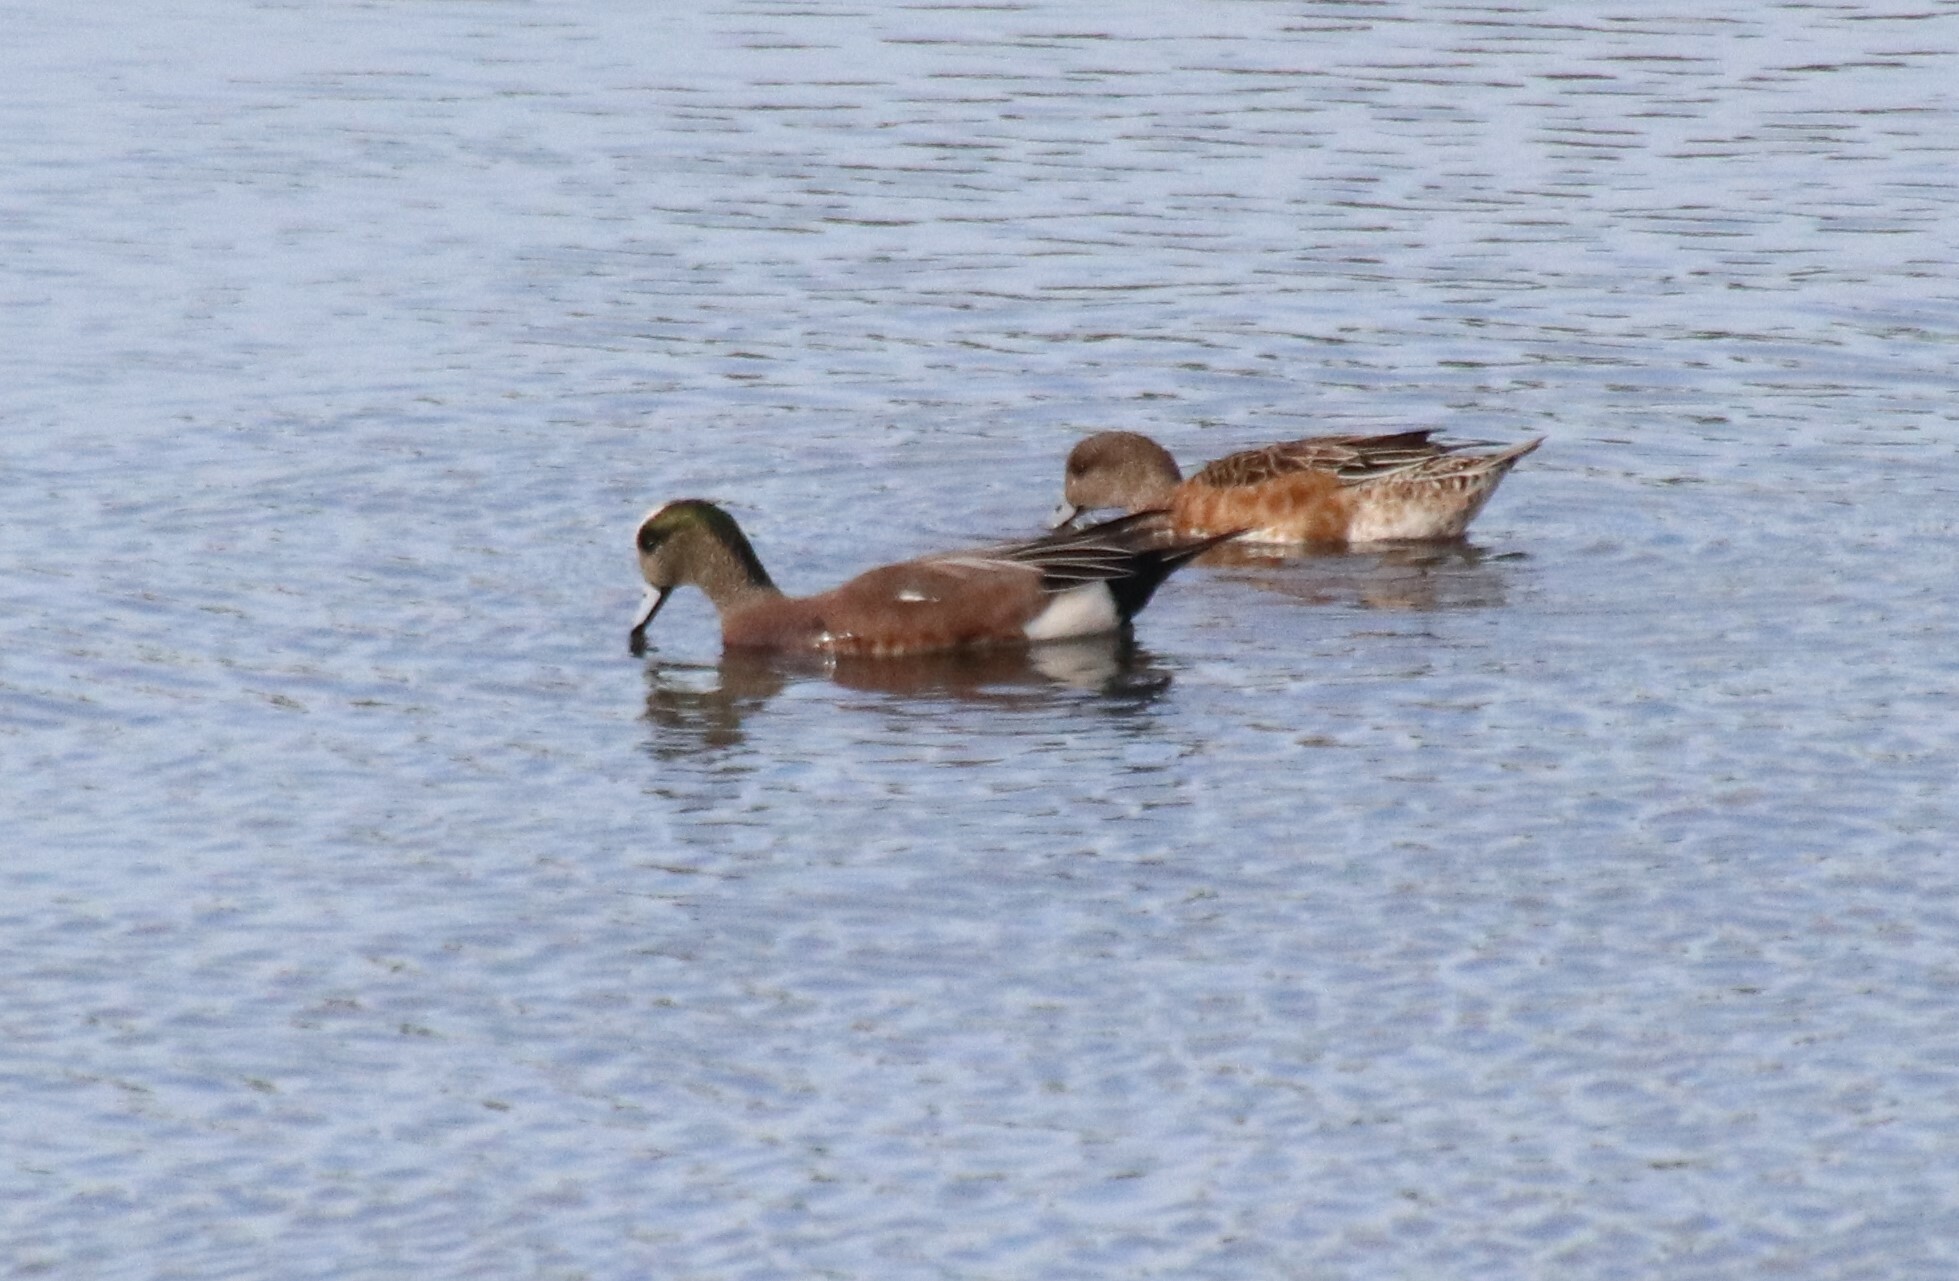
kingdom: Animalia
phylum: Chordata
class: Aves
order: Anseriformes
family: Anatidae
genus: Mareca
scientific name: Mareca americana
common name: American wigeon
